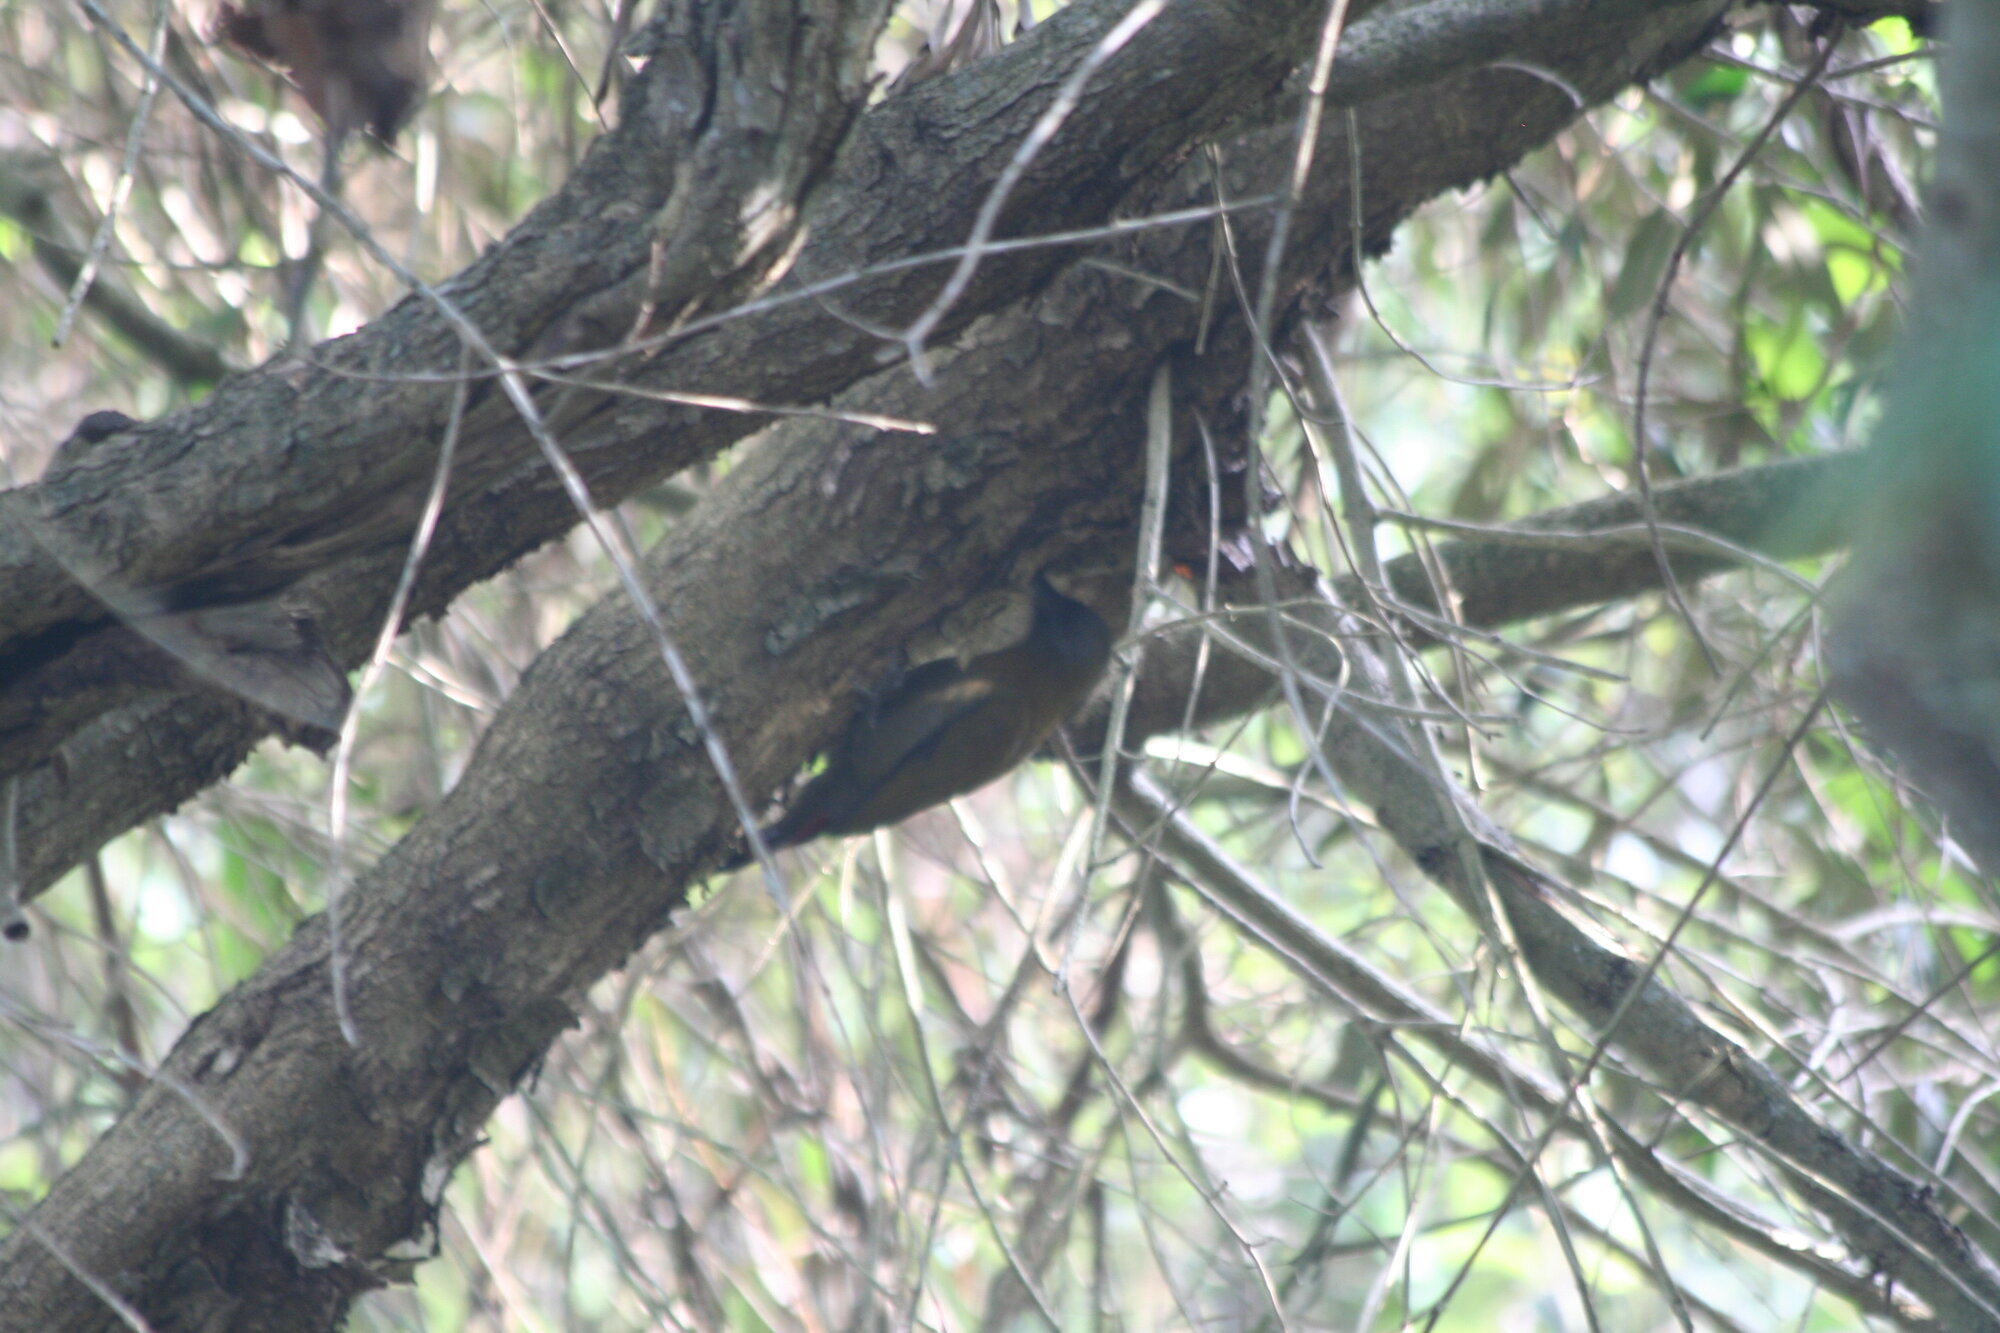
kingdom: Animalia
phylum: Chordata
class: Aves
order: Piciformes
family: Picidae
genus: Dendropicos
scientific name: Dendropicos griseocephalus
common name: Olive woodpecker
